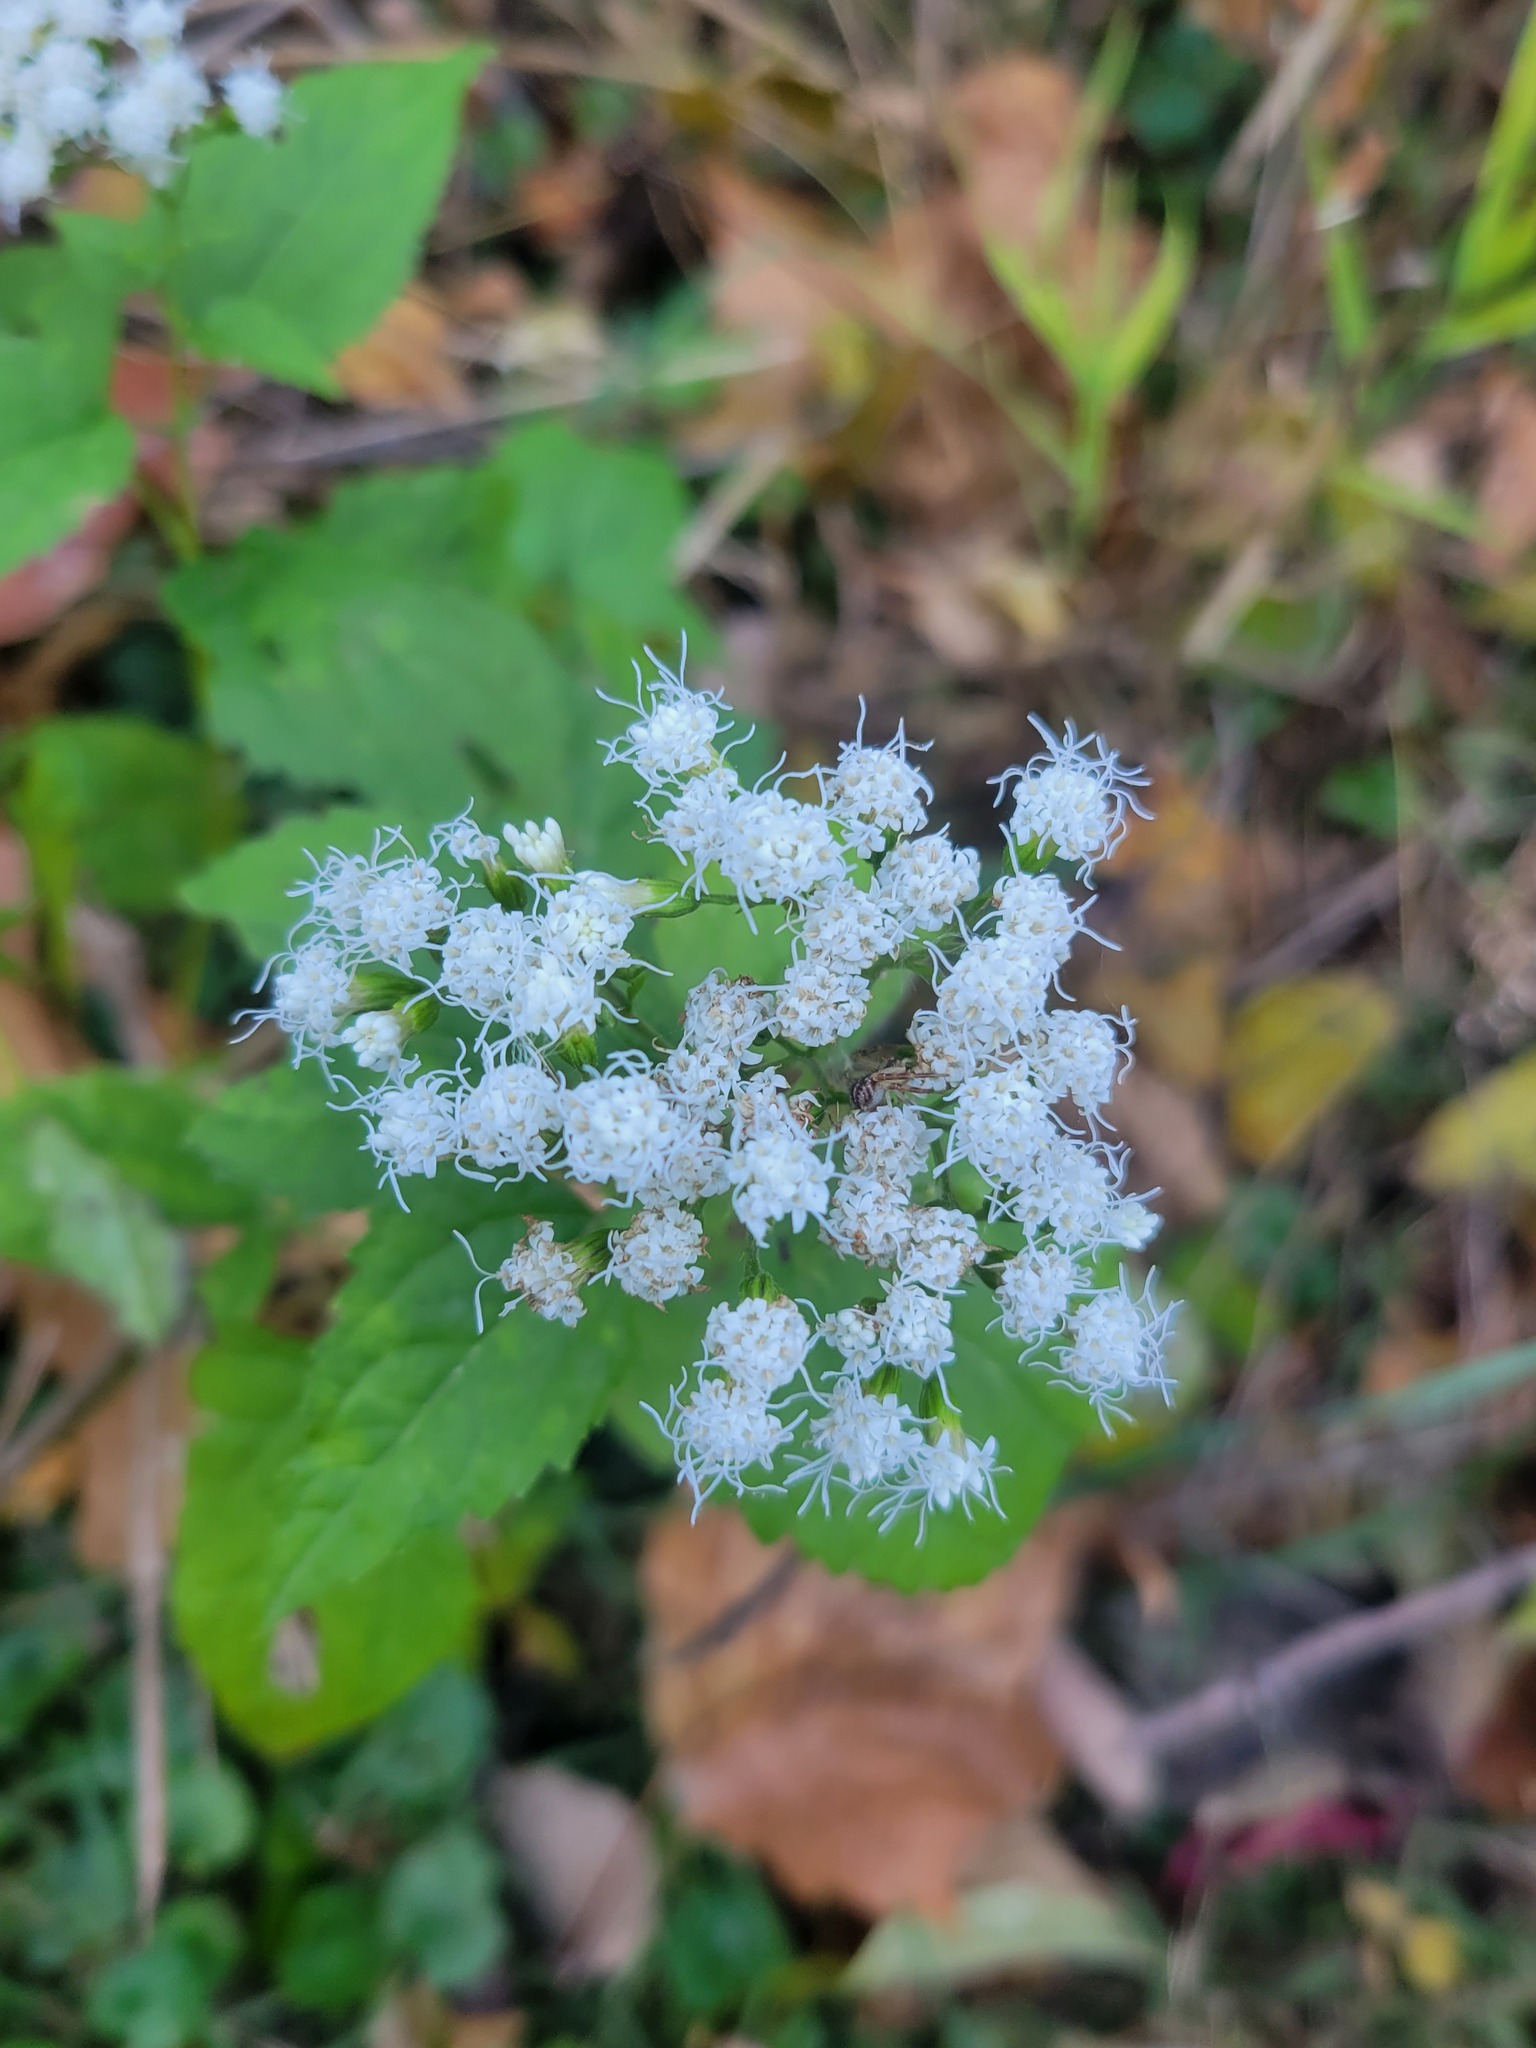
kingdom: Plantae
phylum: Tracheophyta
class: Magnoliopsida
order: Asterales
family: Asteraceae
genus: Ageratina
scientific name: Ageratina altissima
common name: White snakeroot
